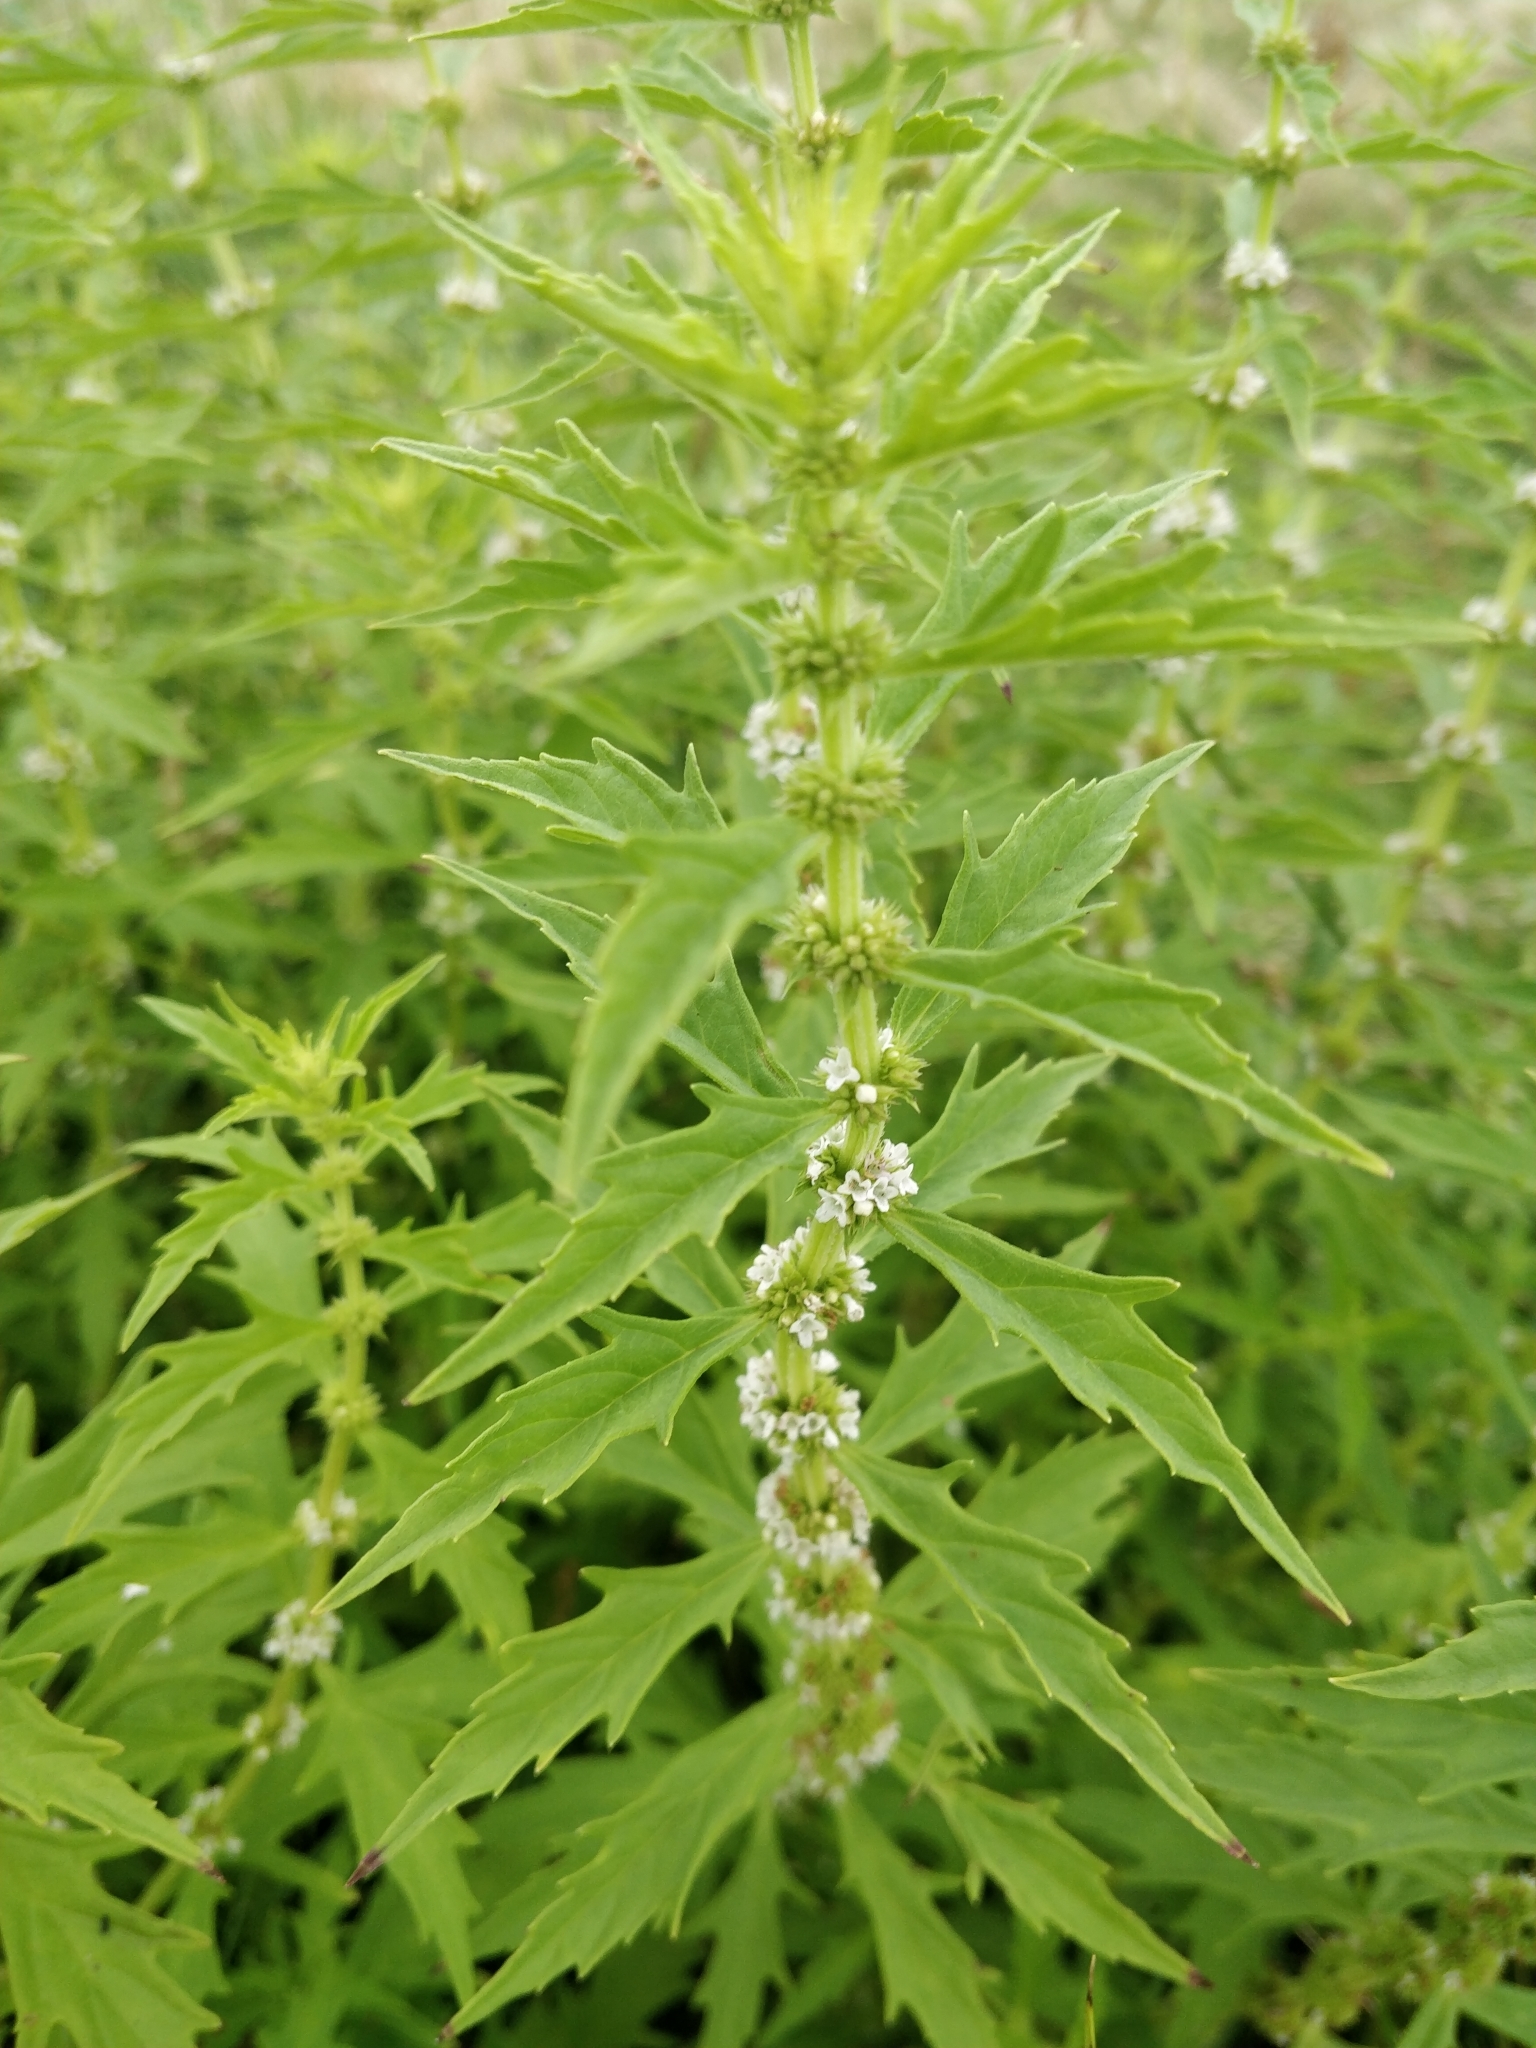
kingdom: Plantae
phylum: Tracheophyta
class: Magnoliopsida
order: Lamiales
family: Lamiaceae
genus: Lycopus
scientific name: Lycopus americanus
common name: American bugleweed
